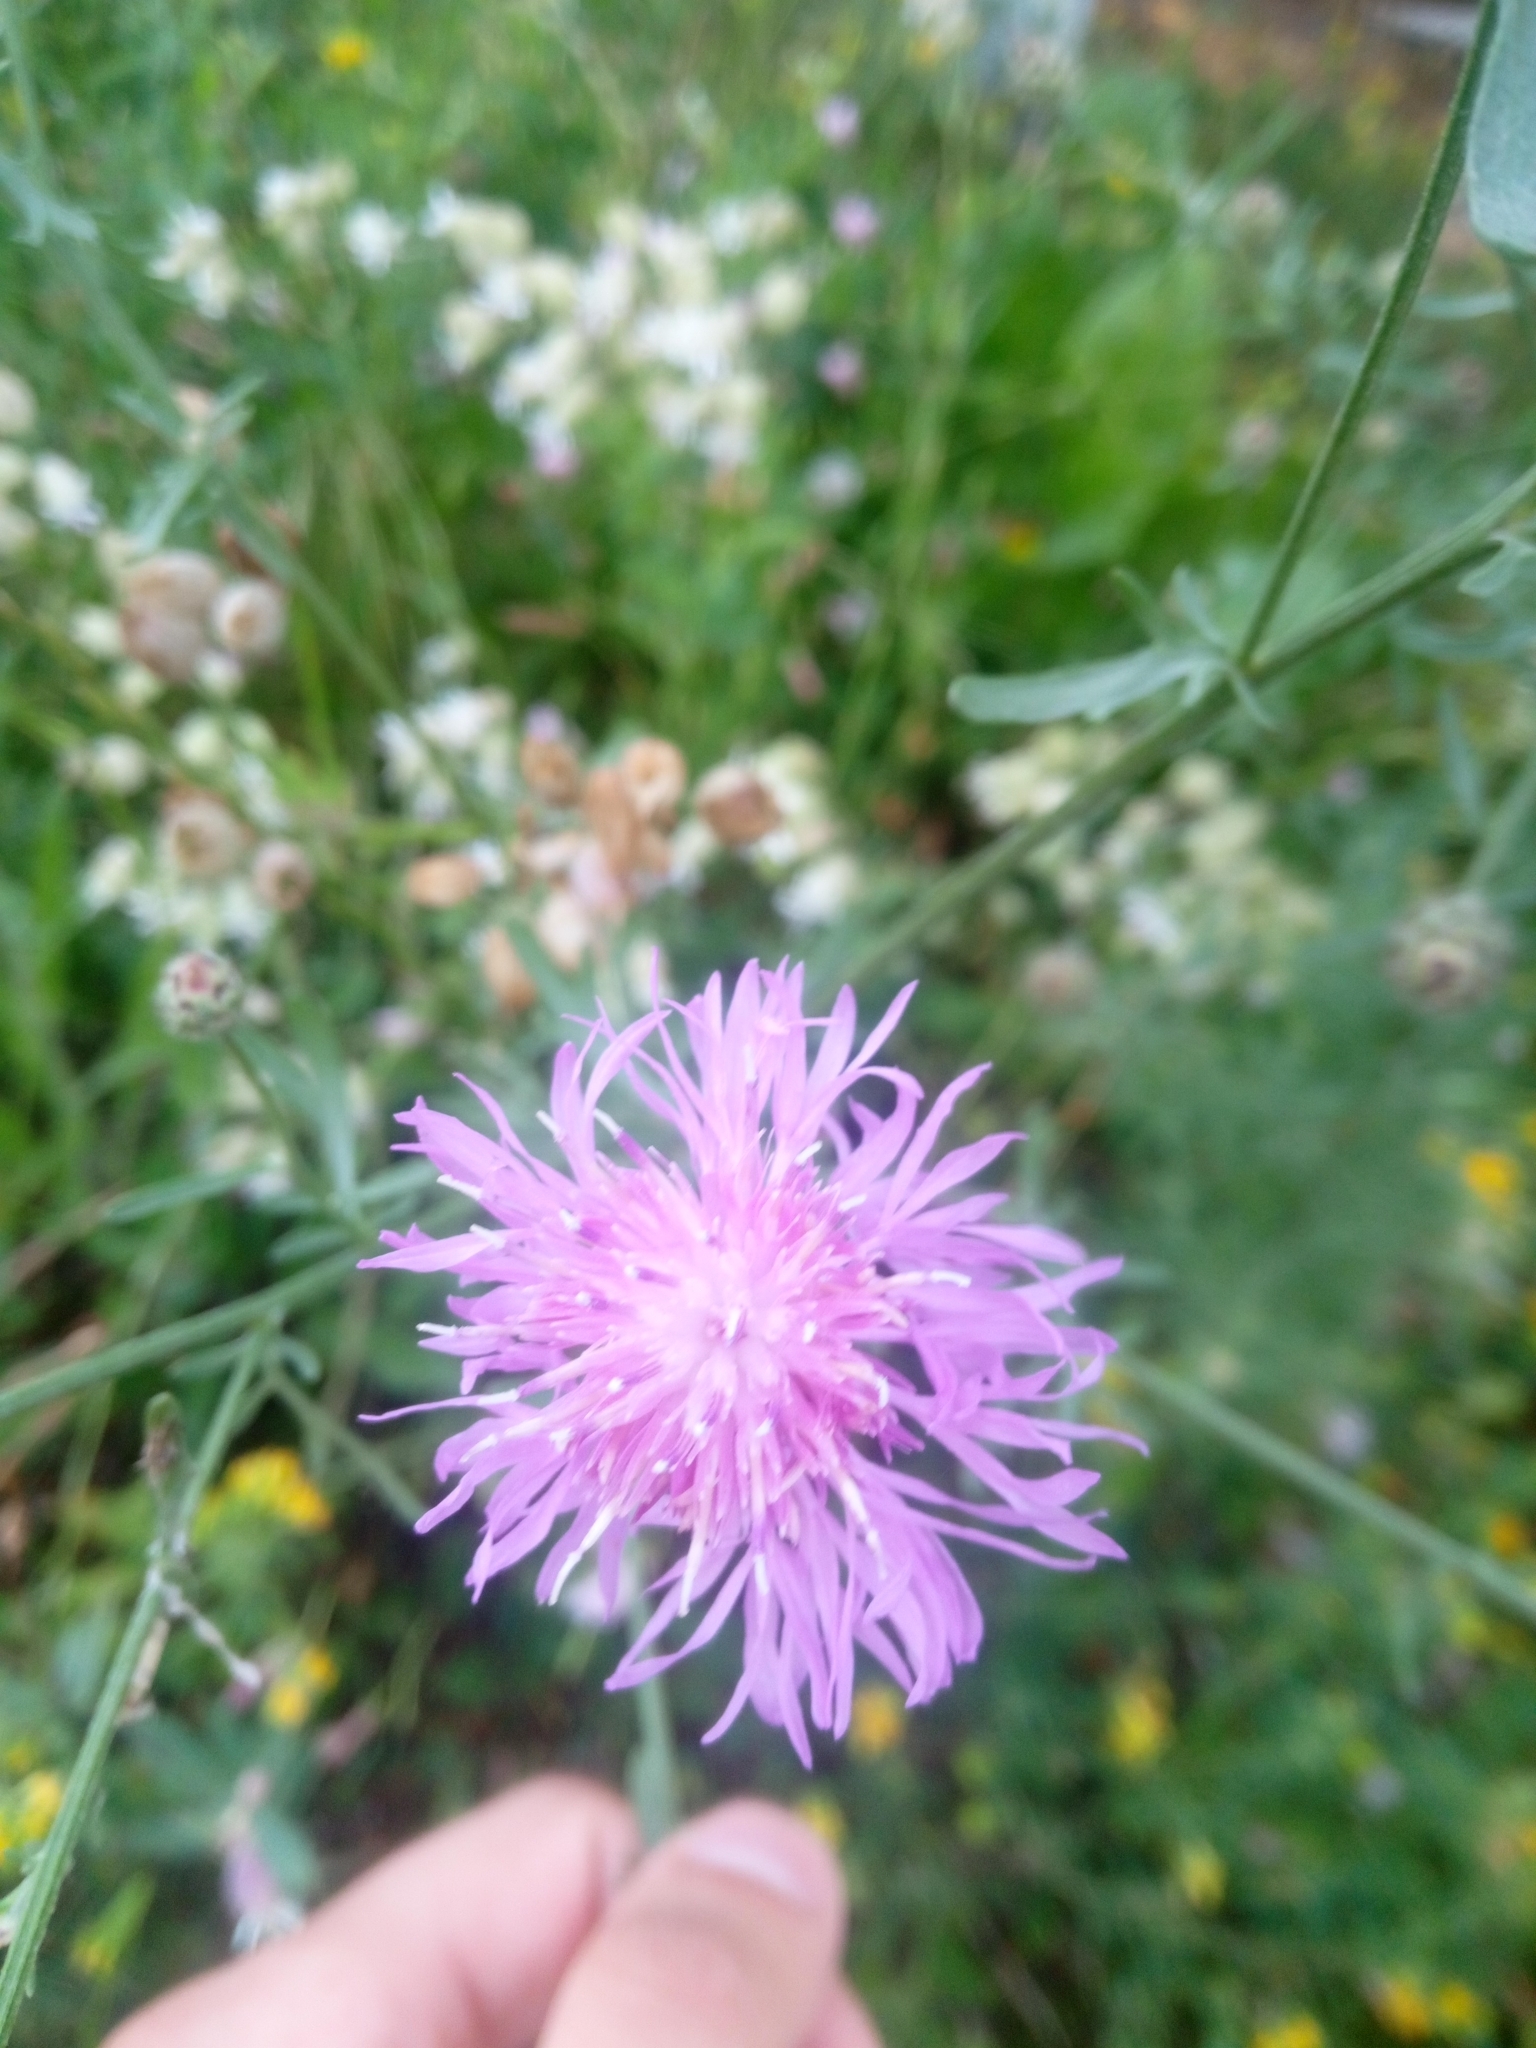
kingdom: Plantae
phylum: Tracheophyta
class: Magnoliopsida
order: Asterales
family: Asteraceae
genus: Centaurea
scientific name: Centaurea stoebe
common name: Spotted knapweed
